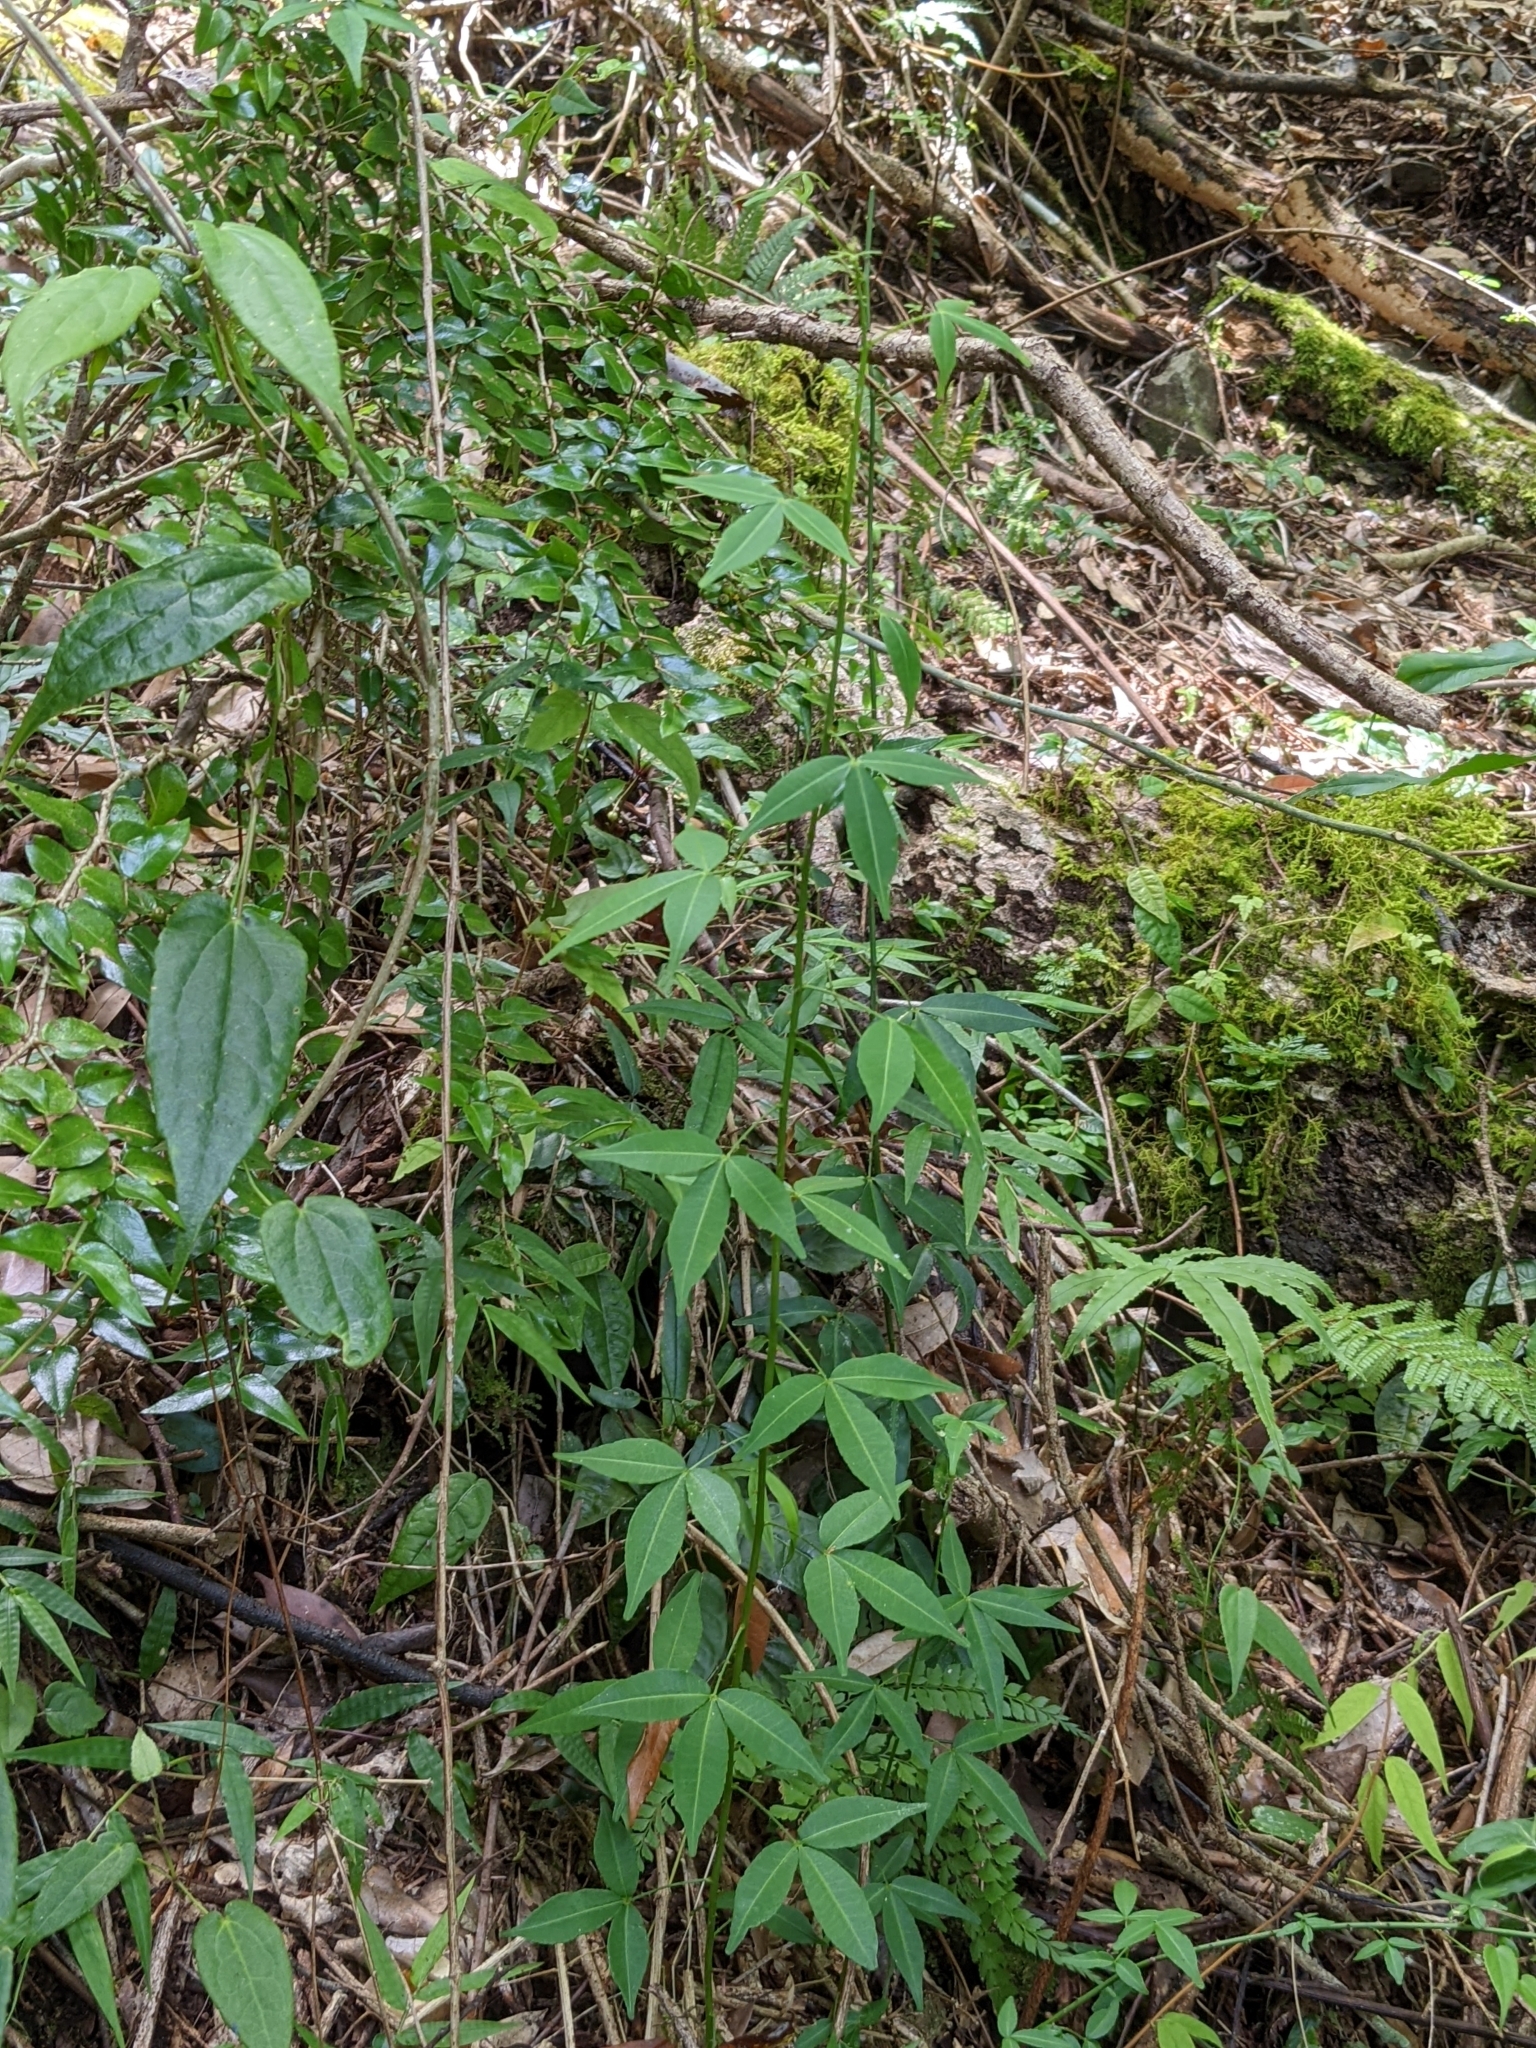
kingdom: Plantae
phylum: Tracheophyta
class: Magnoliopsida
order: Sapindales
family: Rutaceae
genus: Zanthoxylum
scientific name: Zanthoxylum asiaticum
